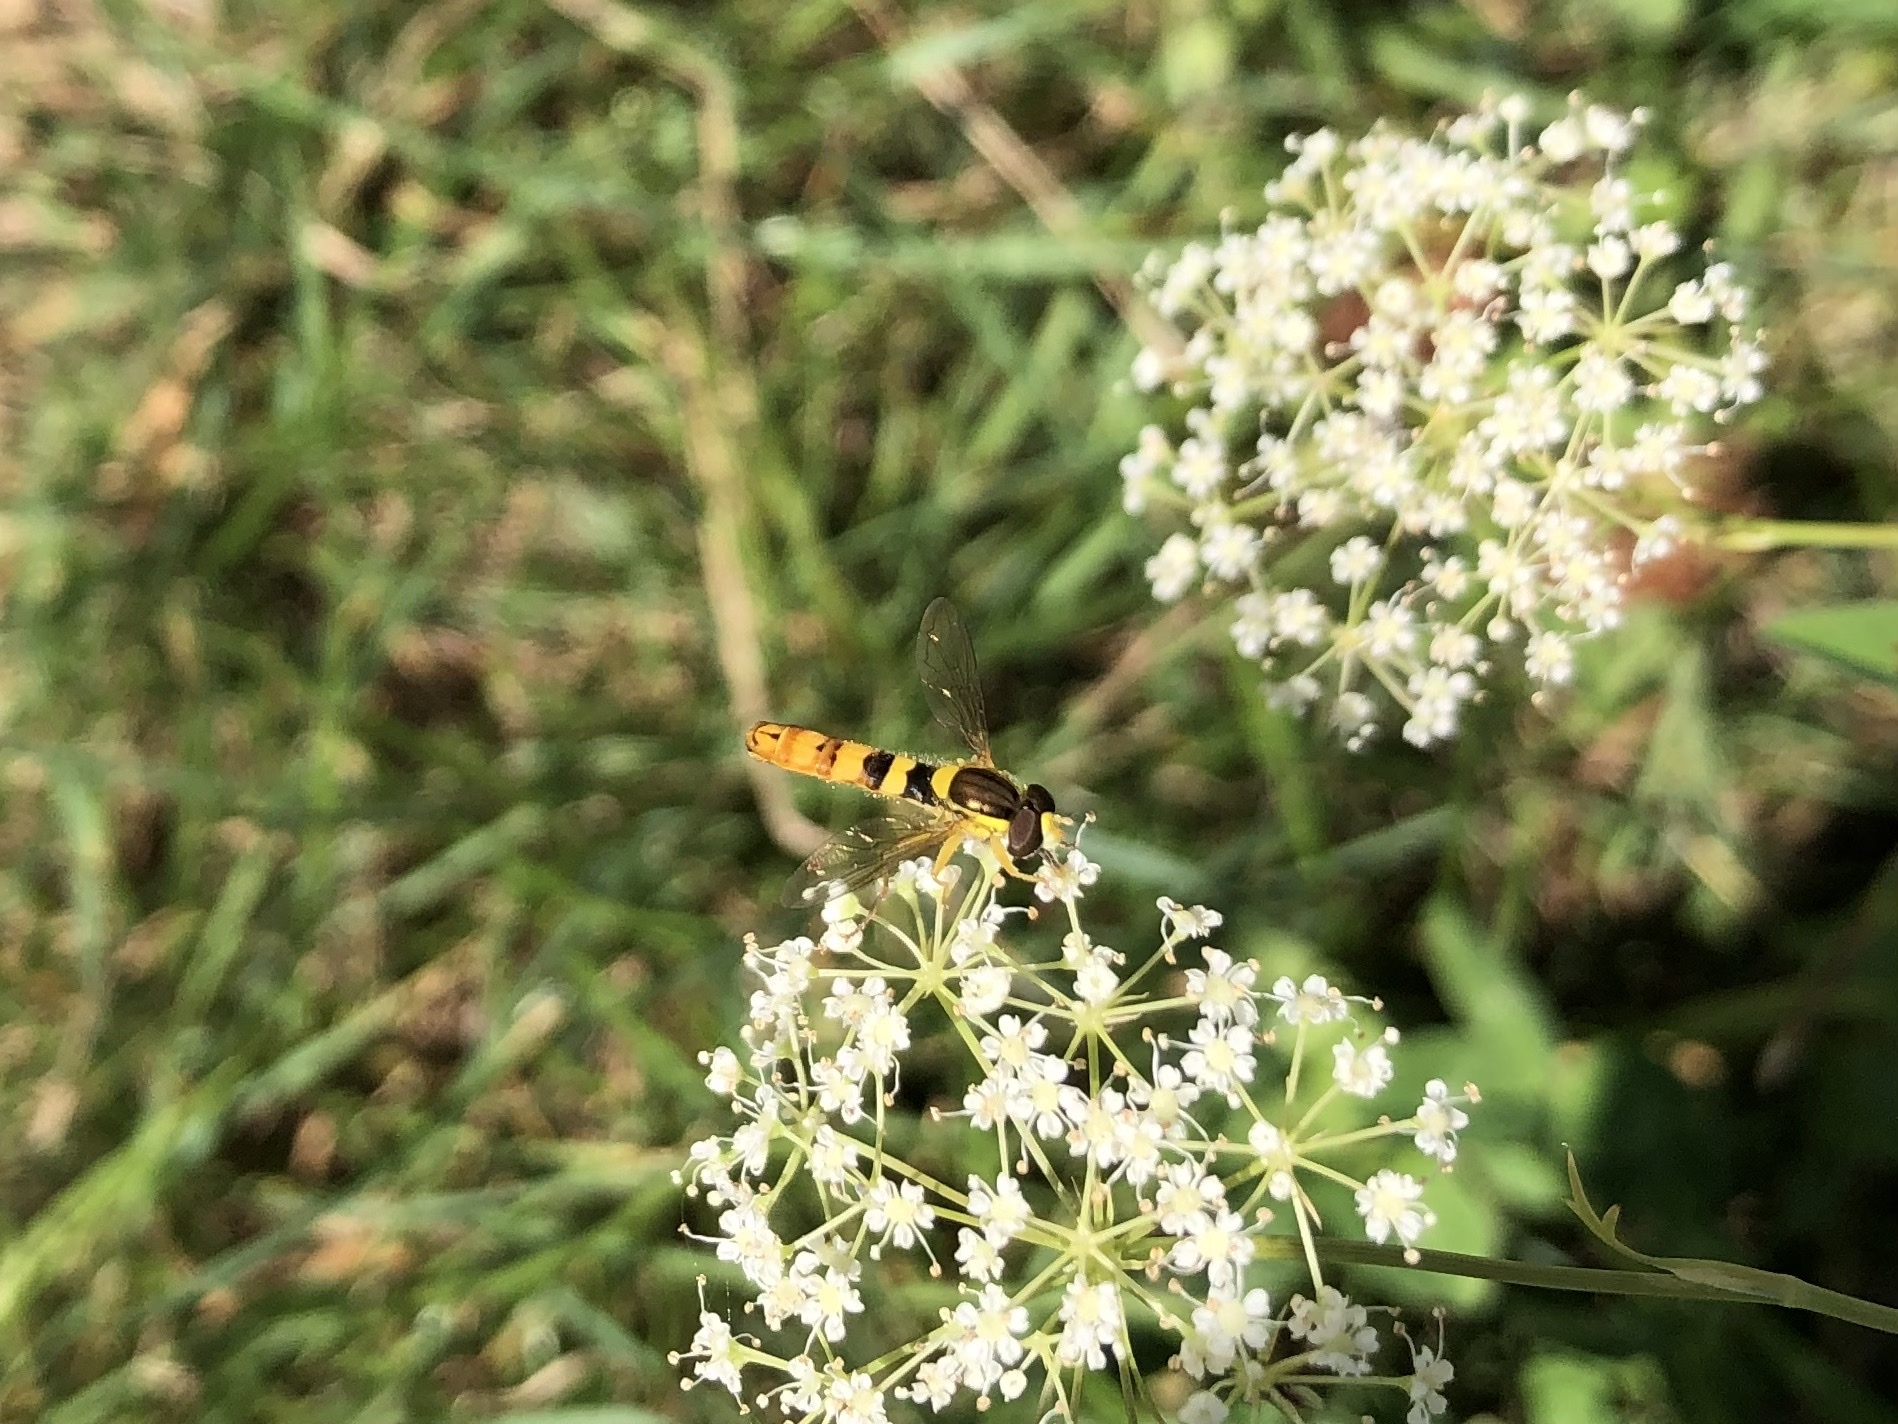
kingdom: Animalia
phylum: Arthropoda
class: Insecta
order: Diptera
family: Syrphidae
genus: Sphaerophoria
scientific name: Sphaerophoria scripta
